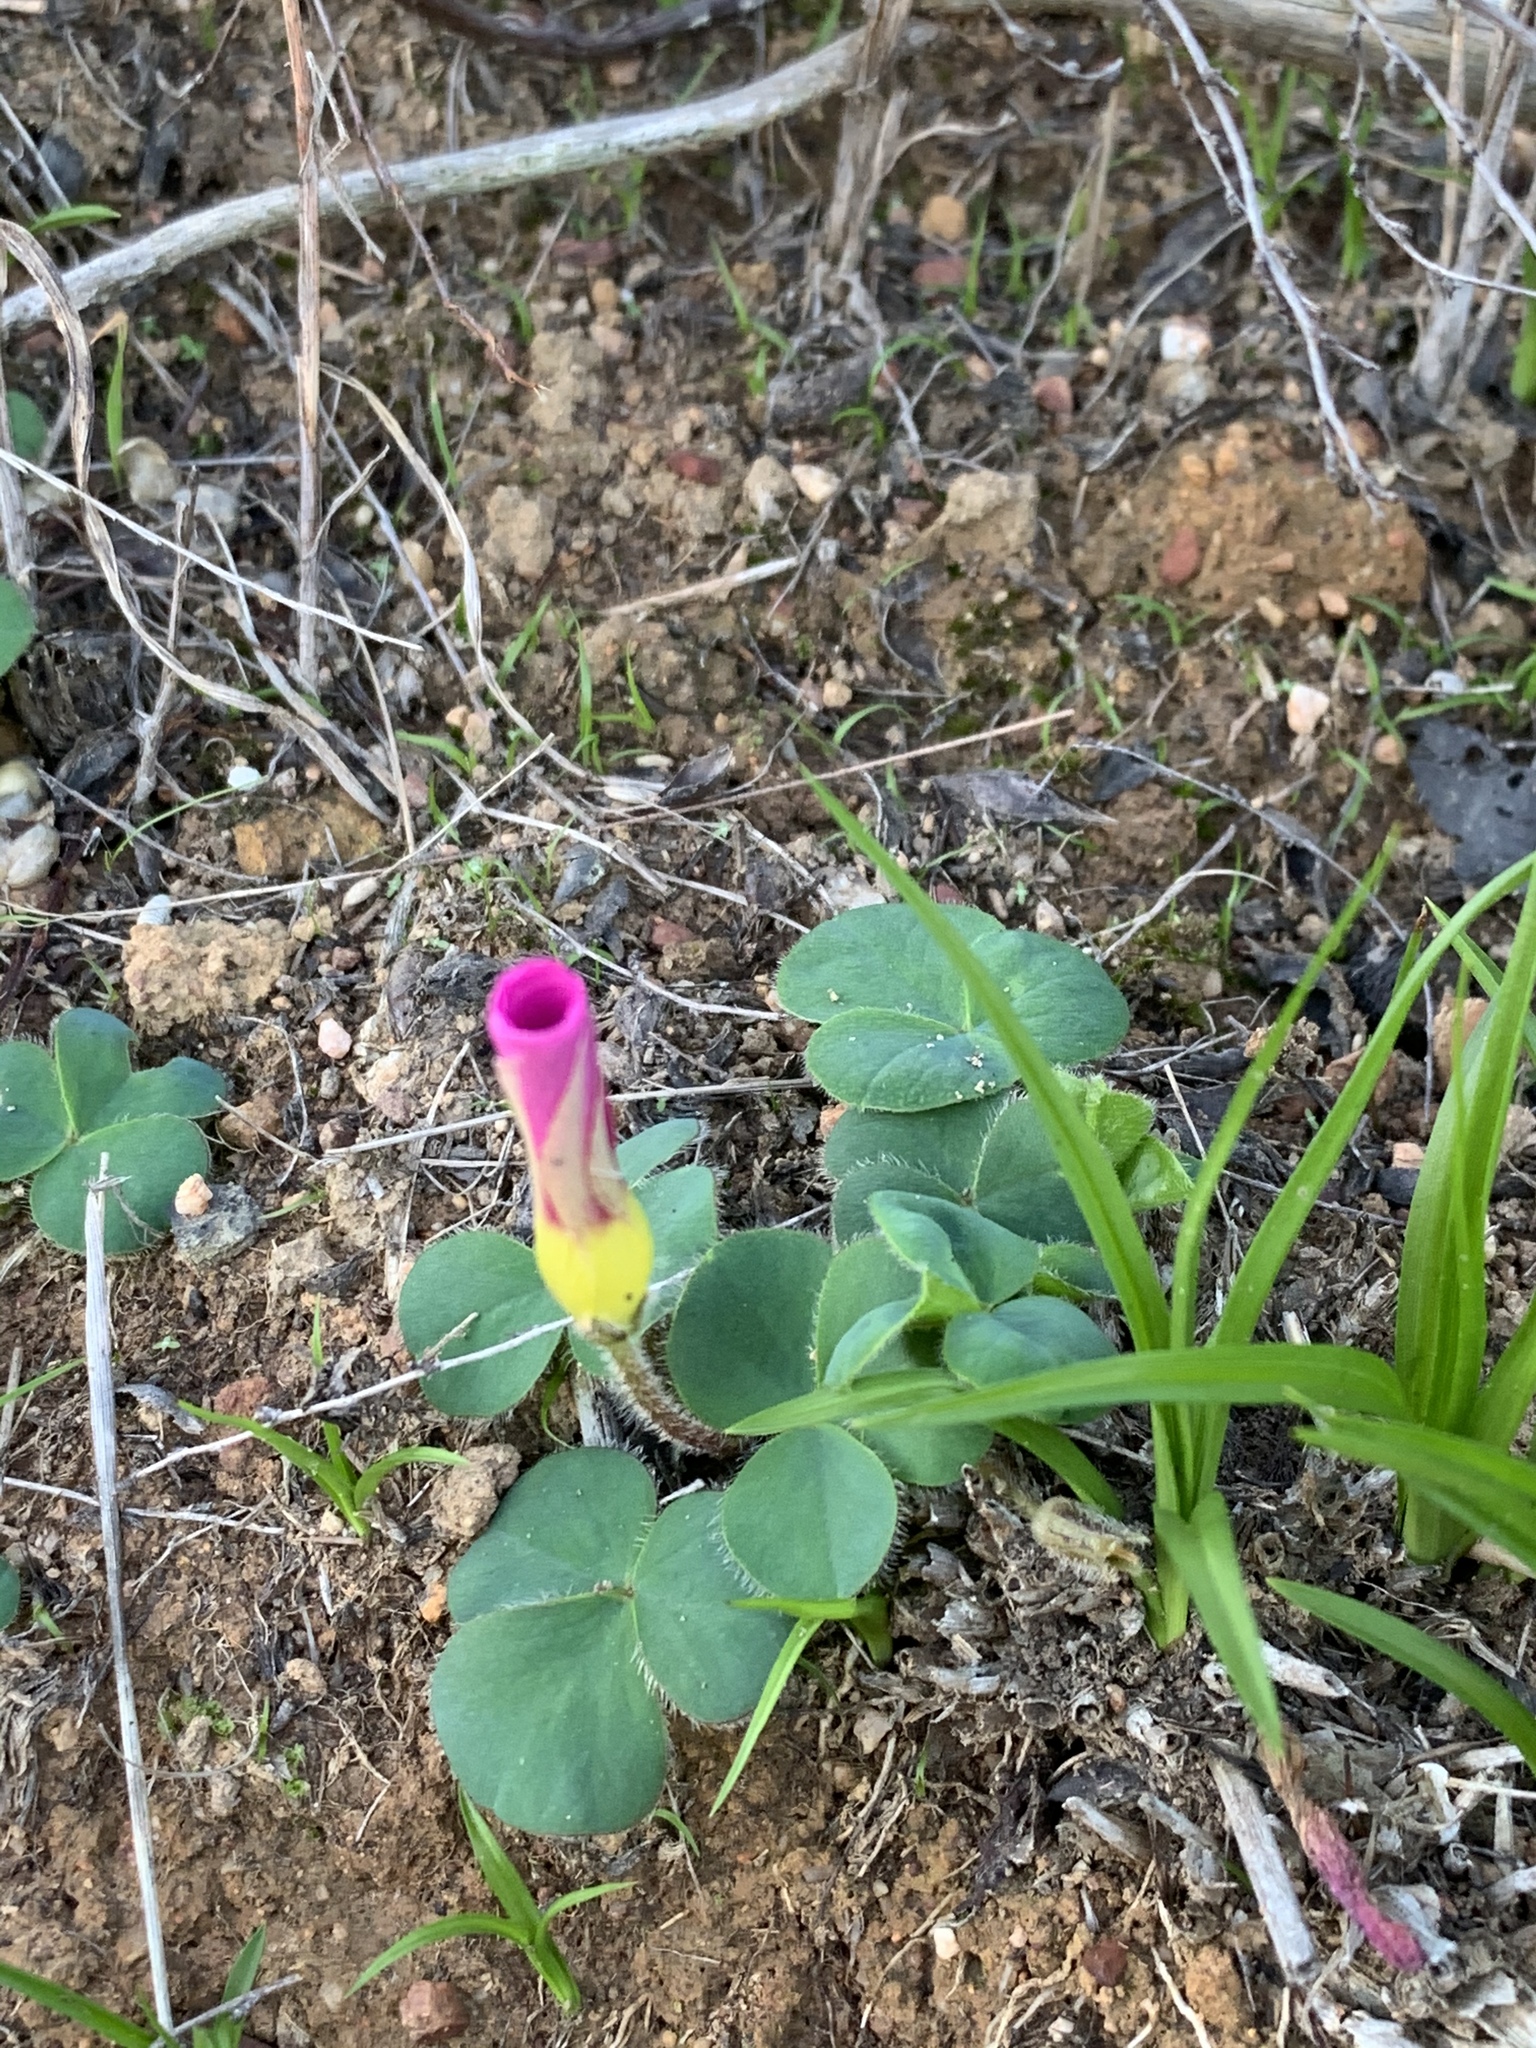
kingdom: Plantae
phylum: Tracheophyta
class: Magnoliopsida
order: Oxalidales
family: Oxalidaceae
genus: Oxalis
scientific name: Oxalis purpurea
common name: Purple woodsorrel
